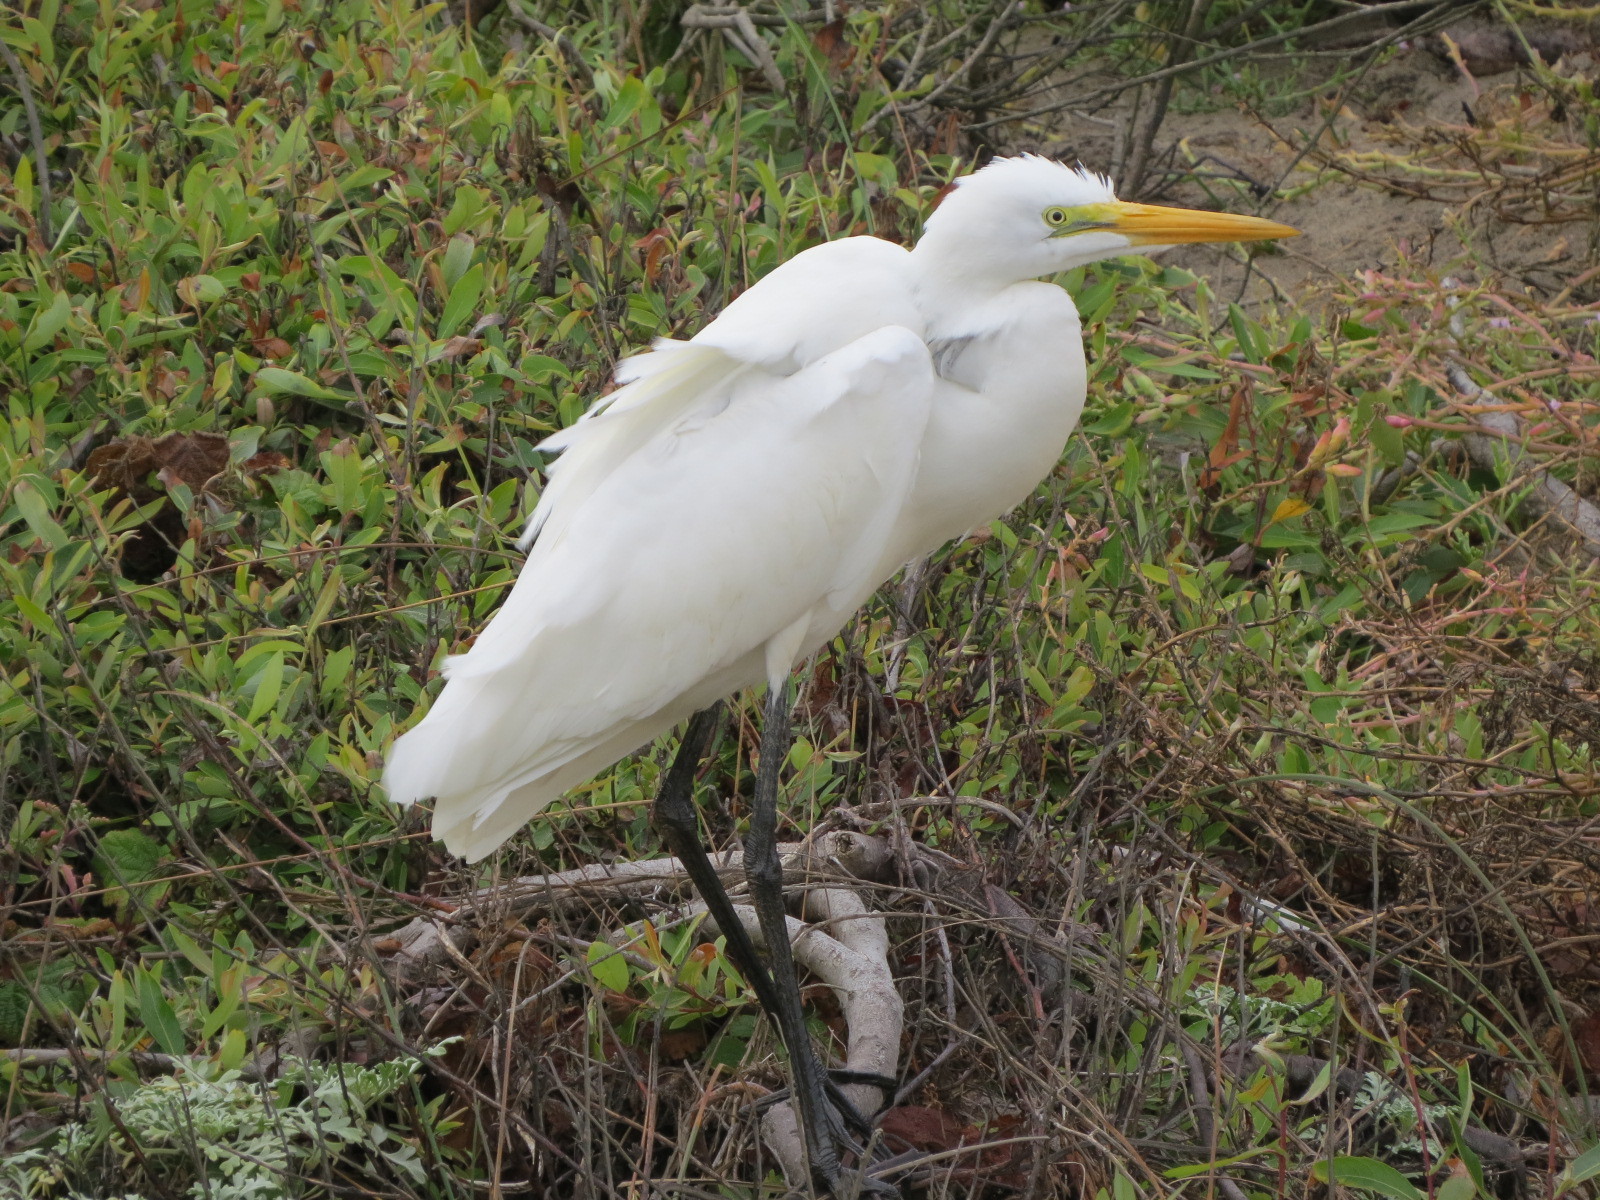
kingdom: Animalia
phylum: Chordata
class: Aves
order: Pelecaniformes
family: Ardeidae
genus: Ardea
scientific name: Ardea alba
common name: Great egret
